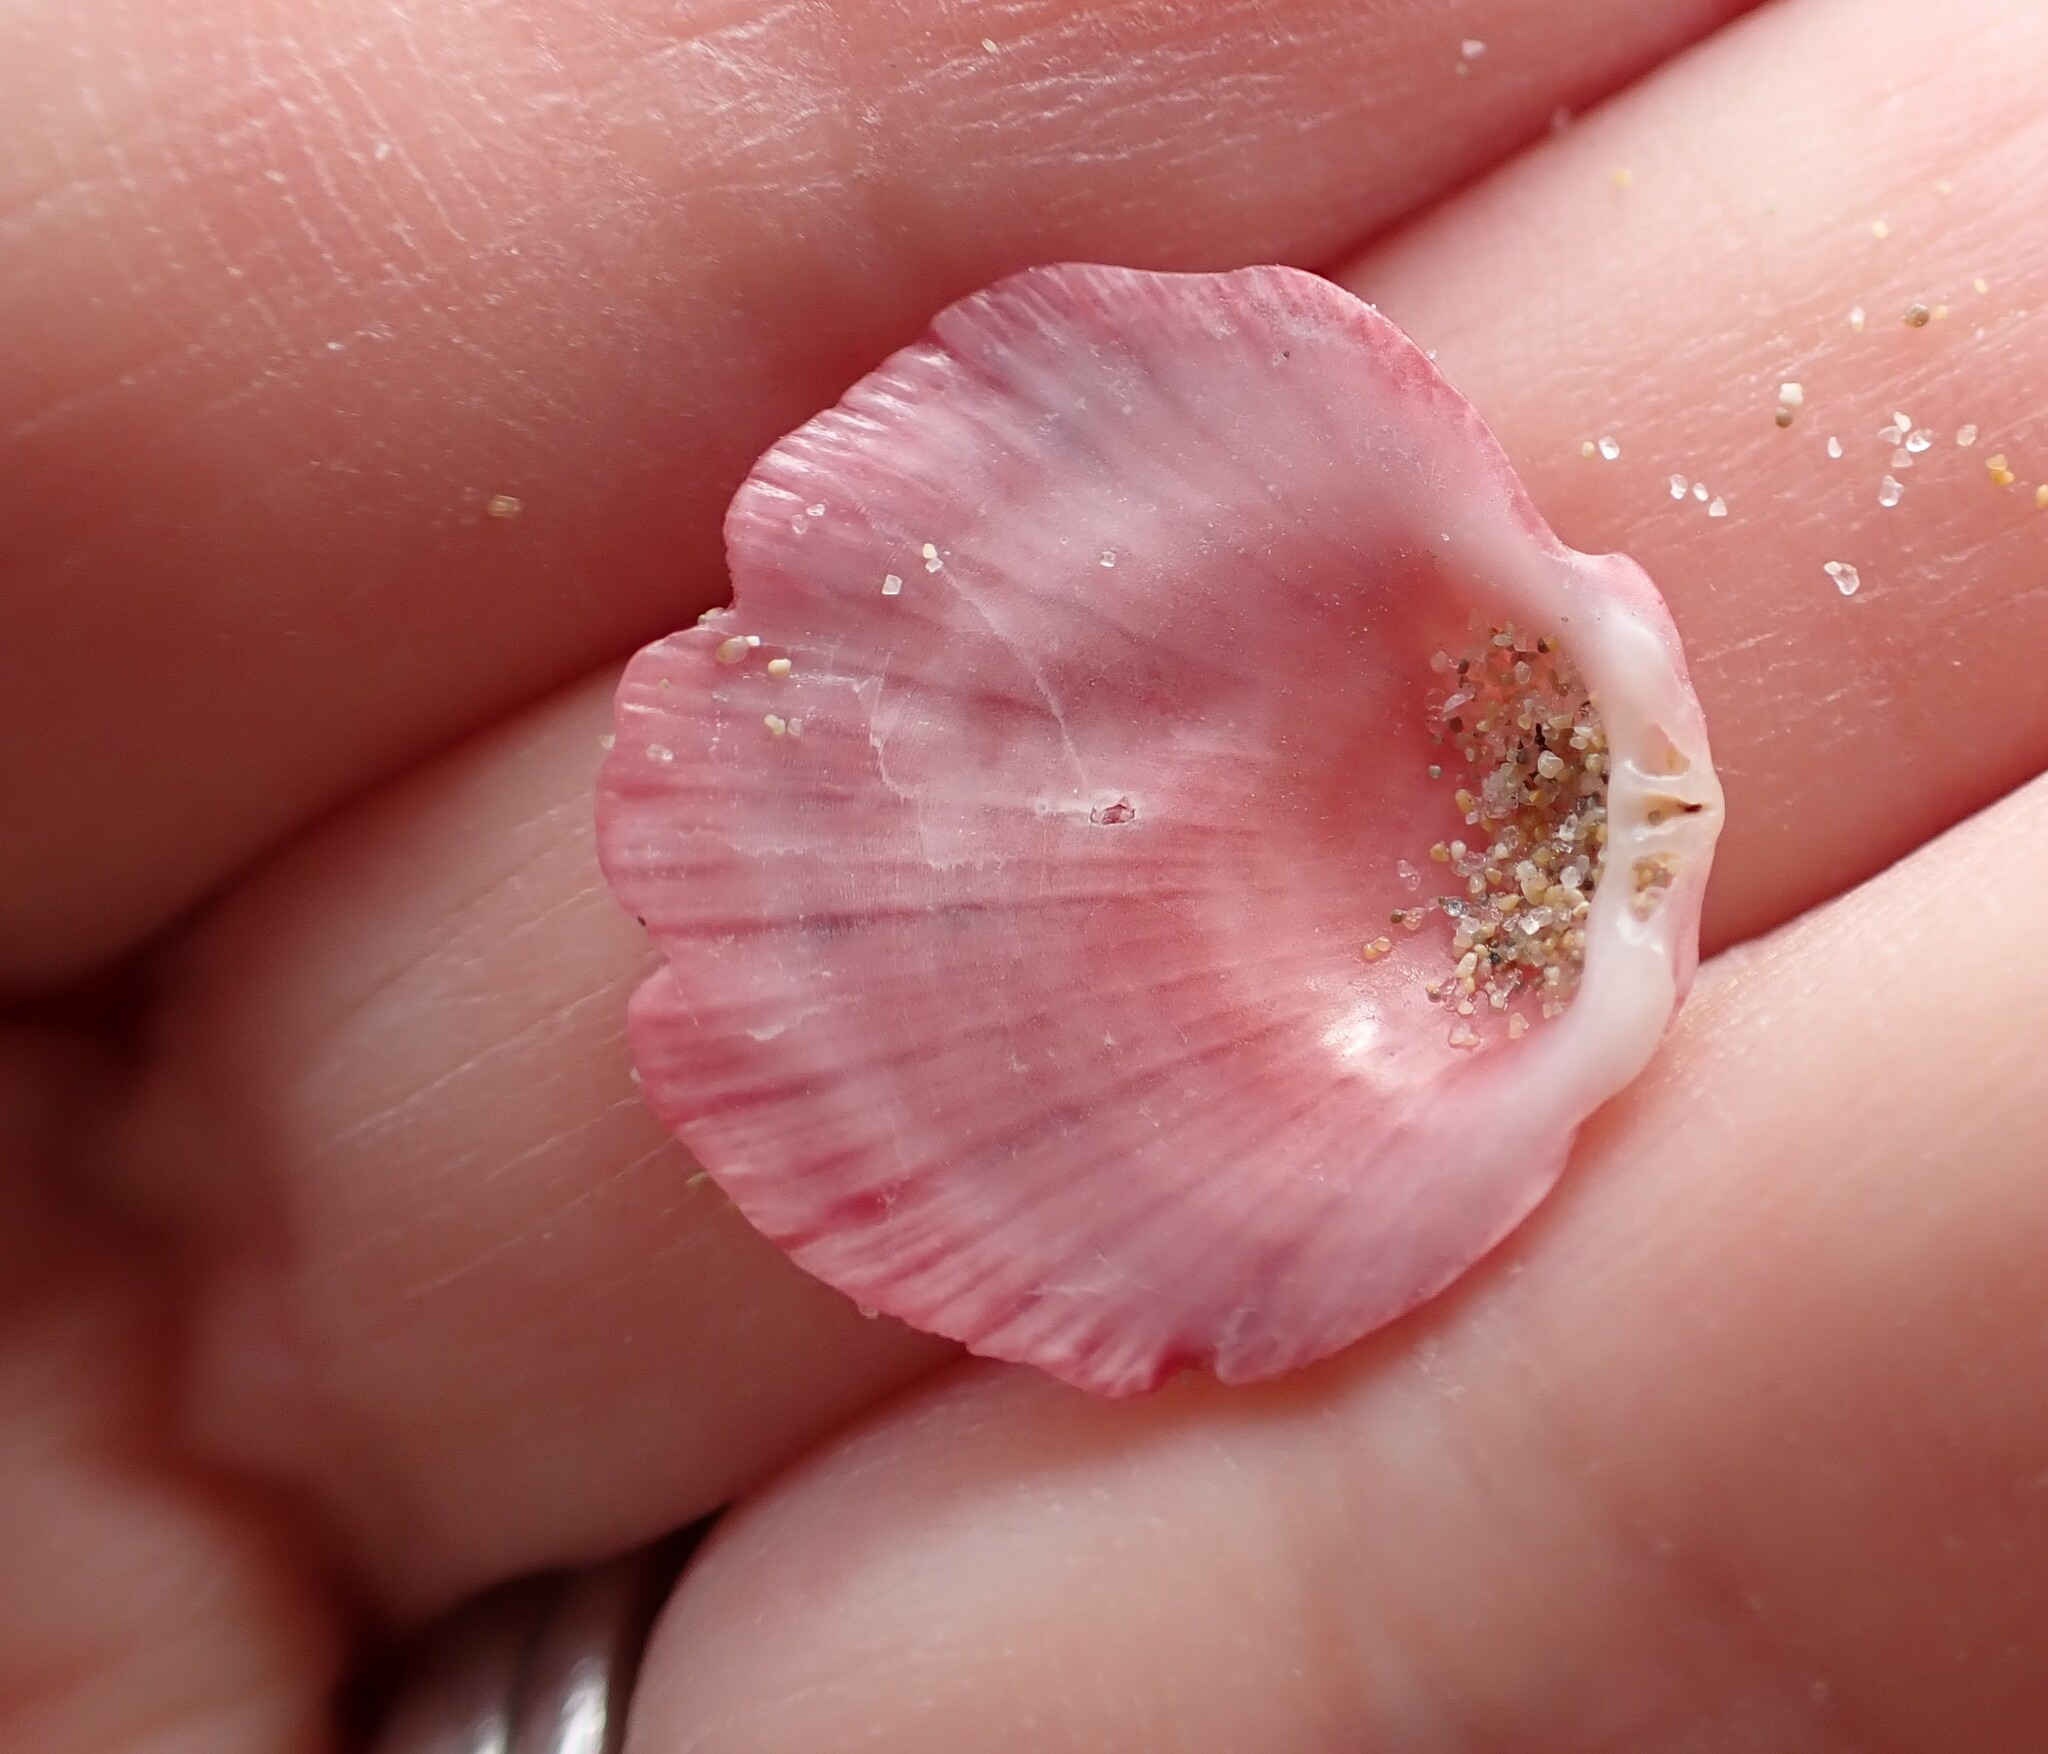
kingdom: Animalia
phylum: Mollusca
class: Bivalvia
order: Pectinida
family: Spondylidae
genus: Spondylus
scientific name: Spondylus gaederopus
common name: European thorny oyster
